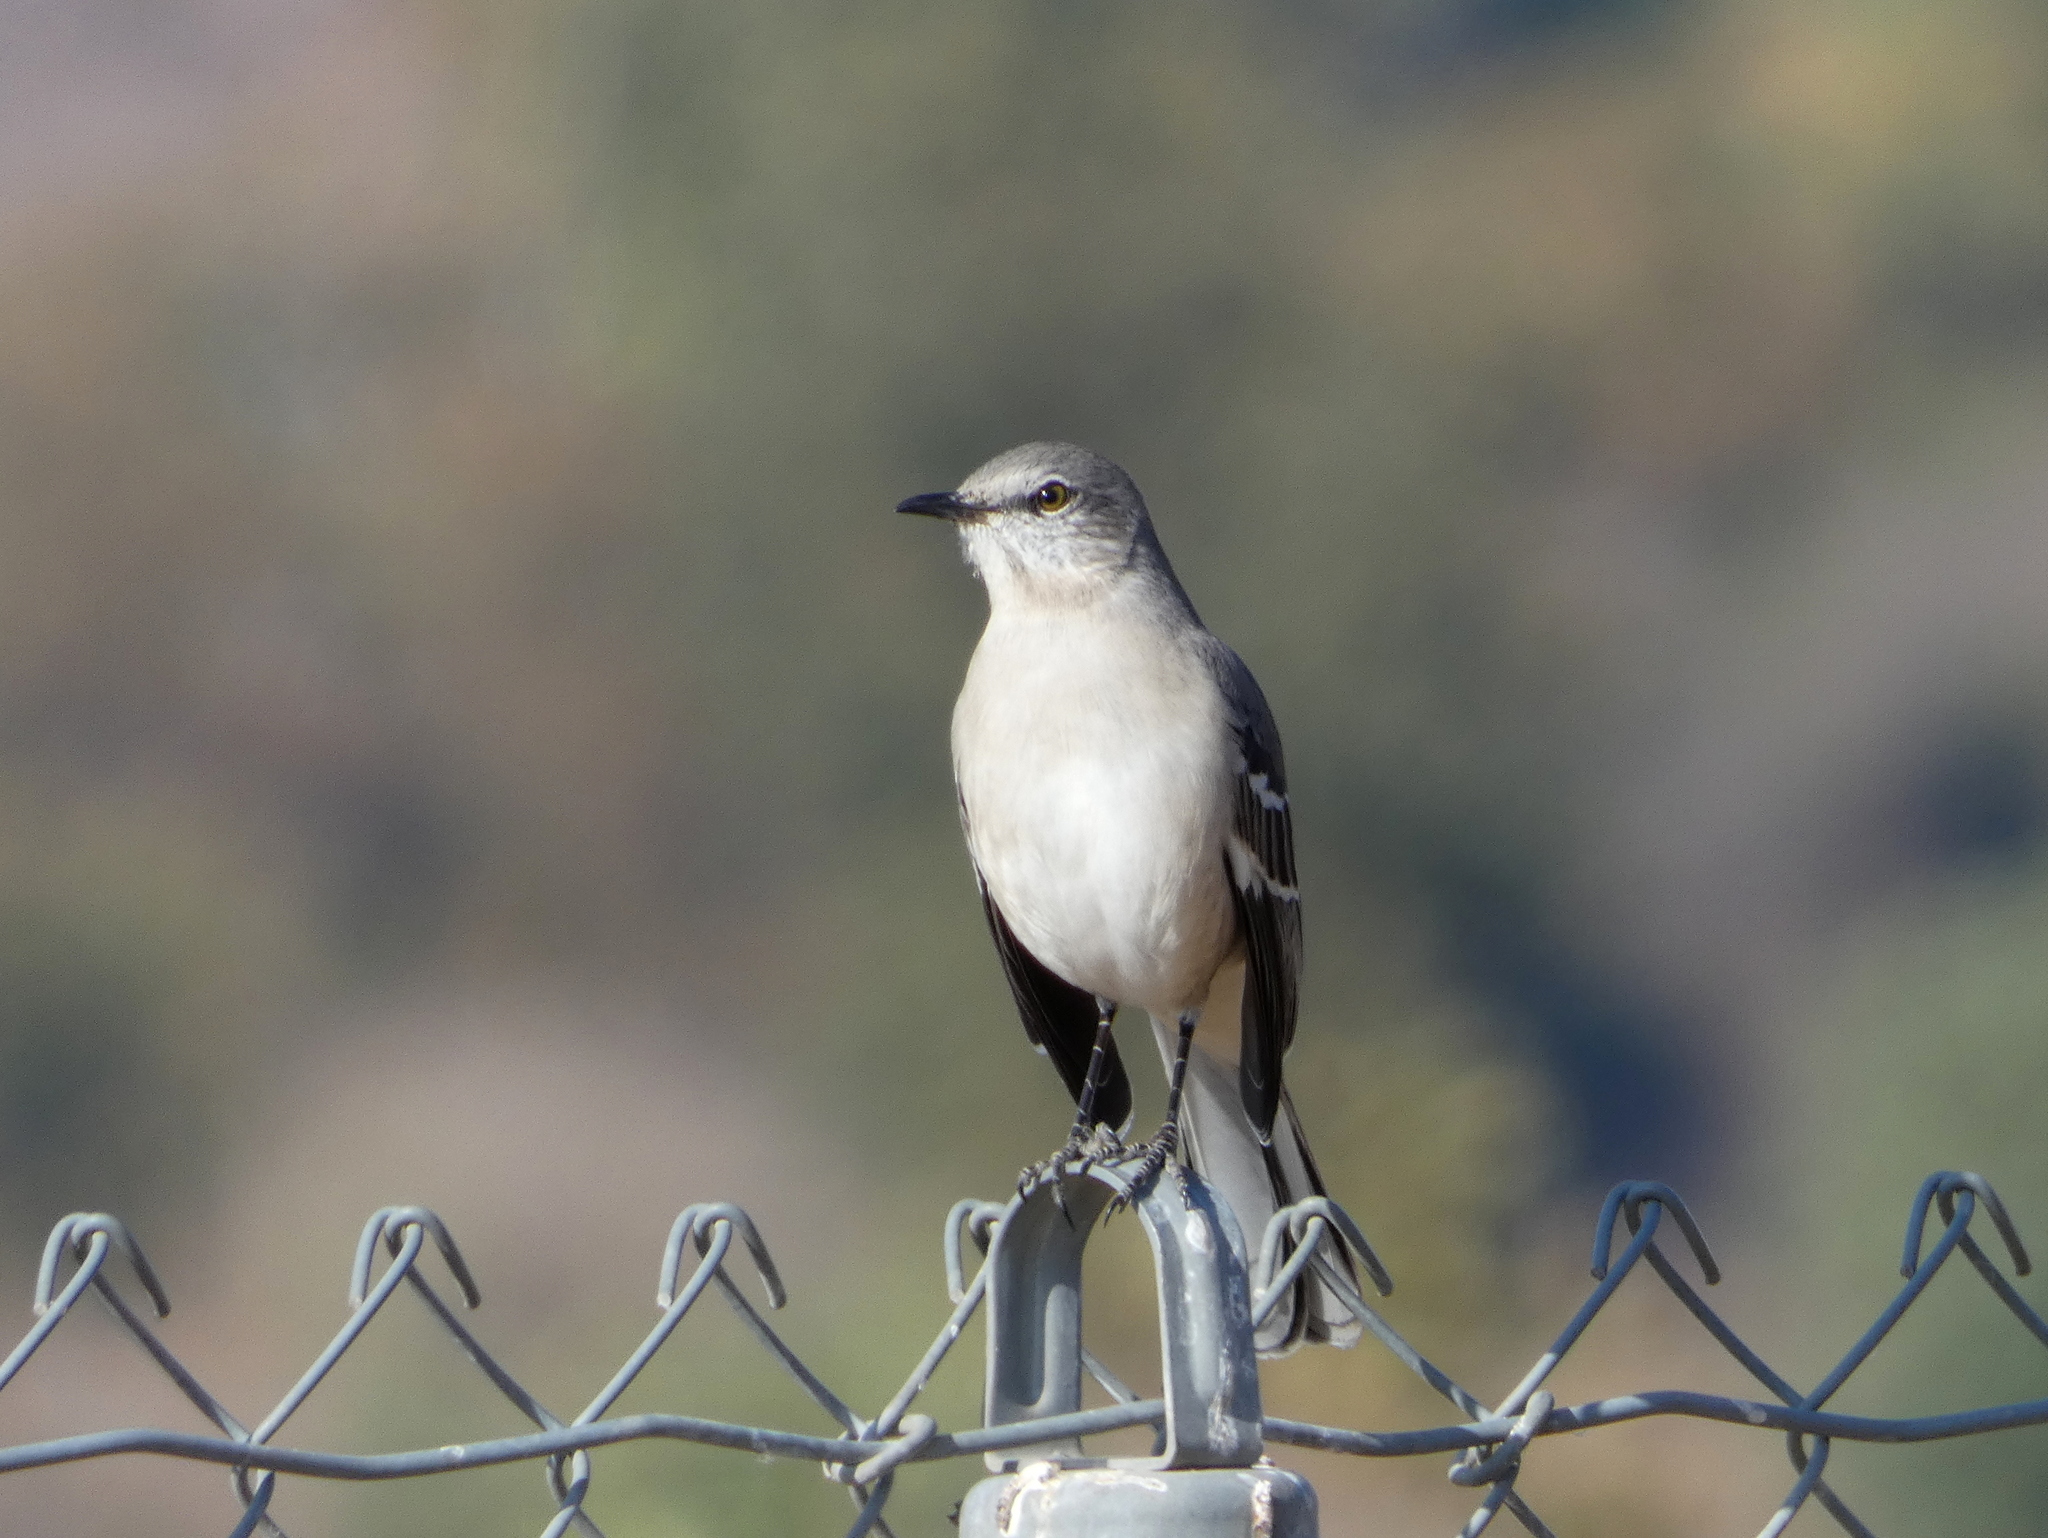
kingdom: Animalia
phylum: Chordata
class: Aves
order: Passeriformes
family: Mimidae
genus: Mimus
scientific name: Mimus polyglottos
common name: Northern mockingbird
